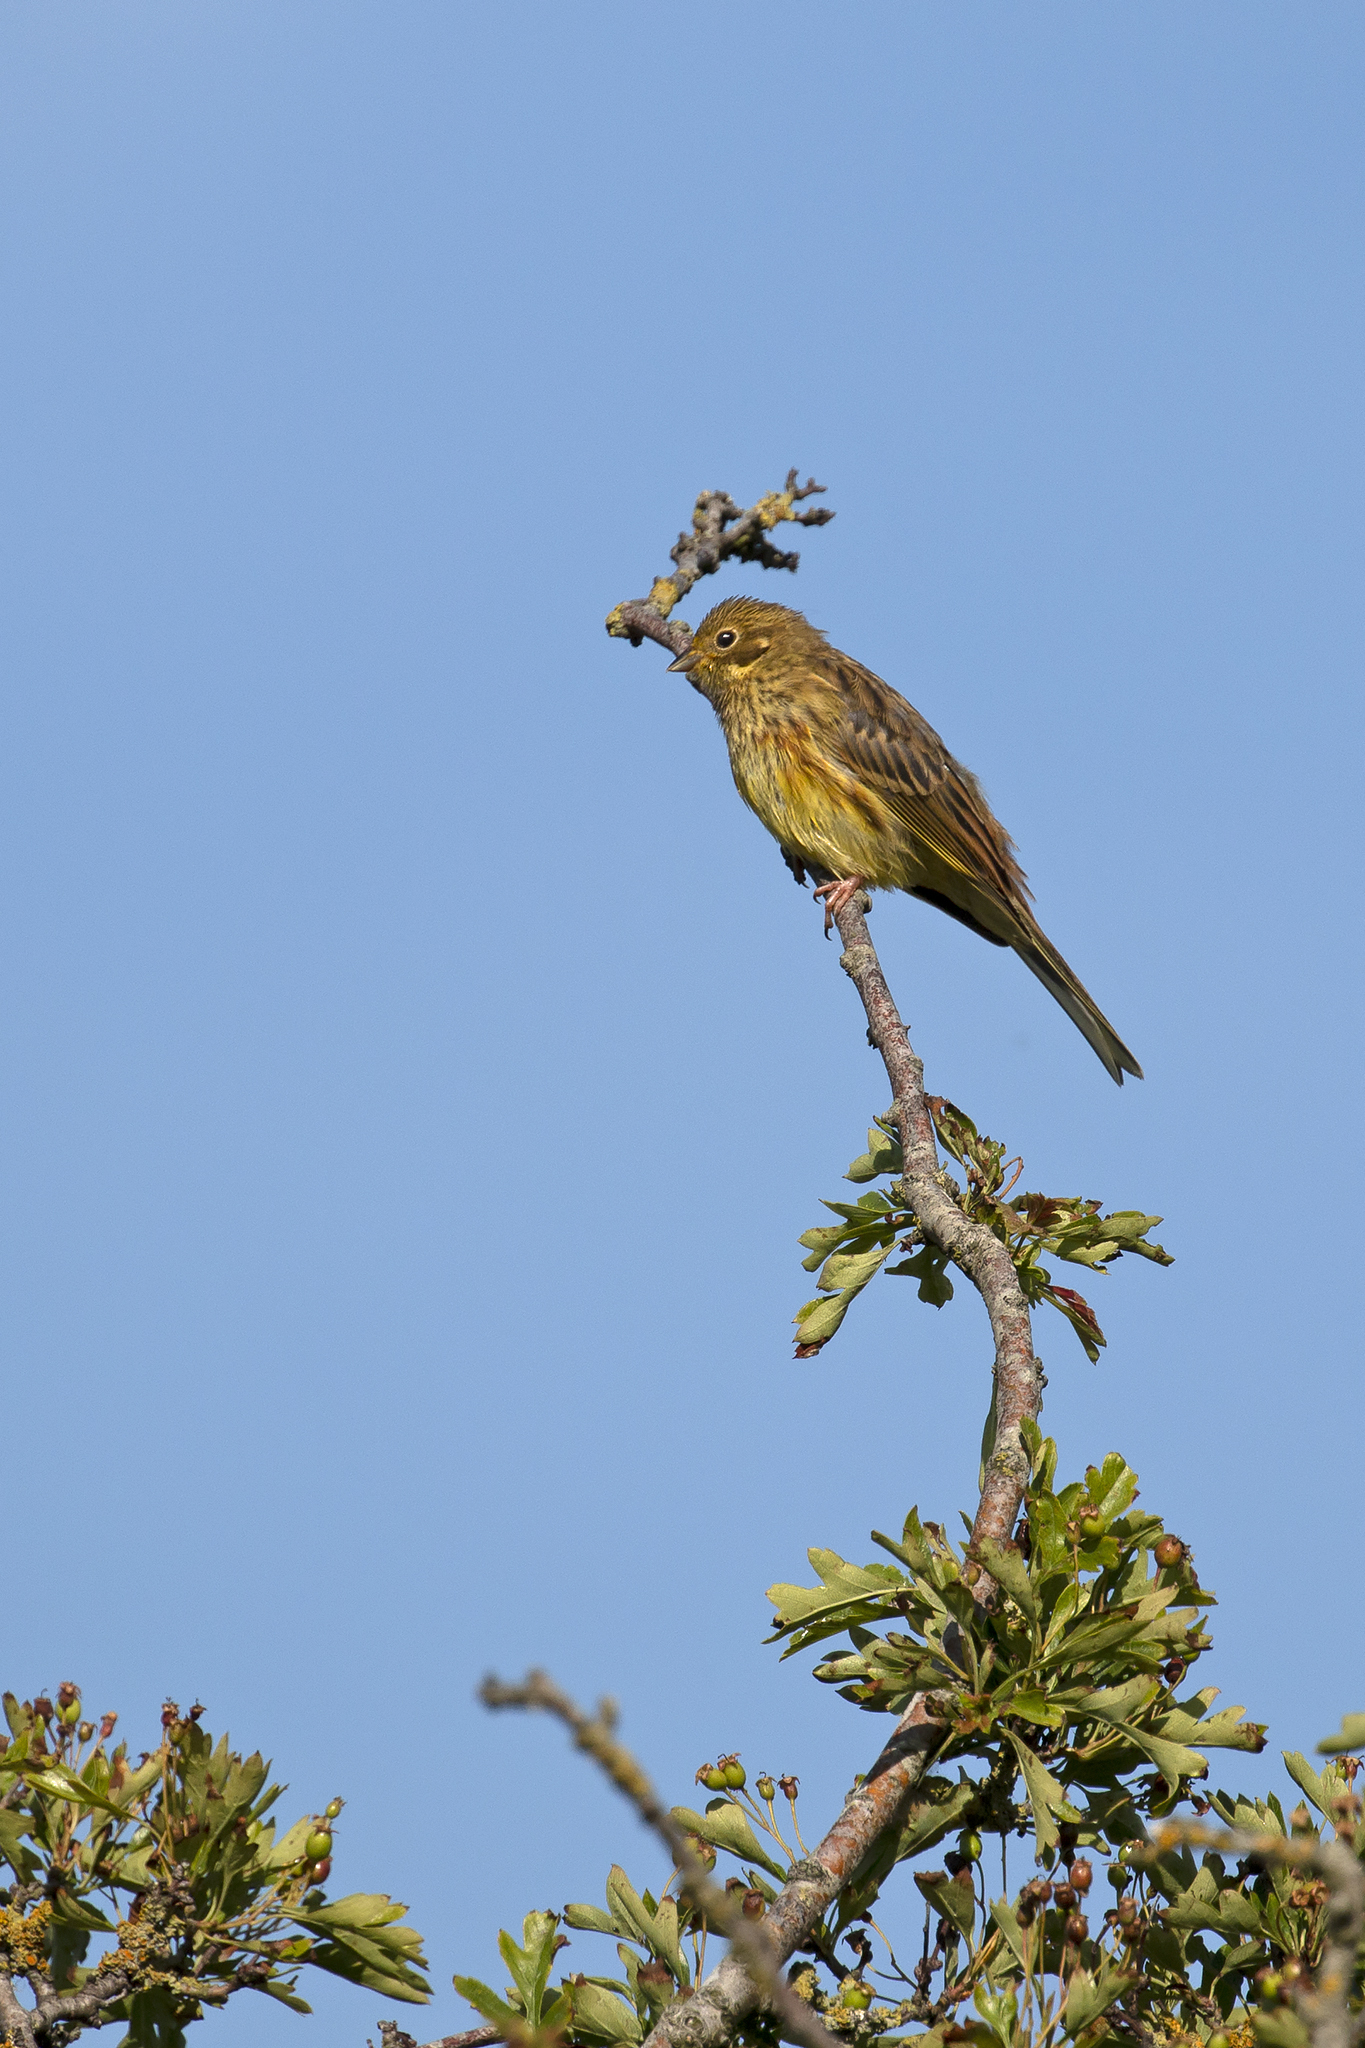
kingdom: Animalia
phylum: Chordata
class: Aves
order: Passeriformes
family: Emberizidae
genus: Emberiza
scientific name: Emberiza citrinella
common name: Yellowhammer
